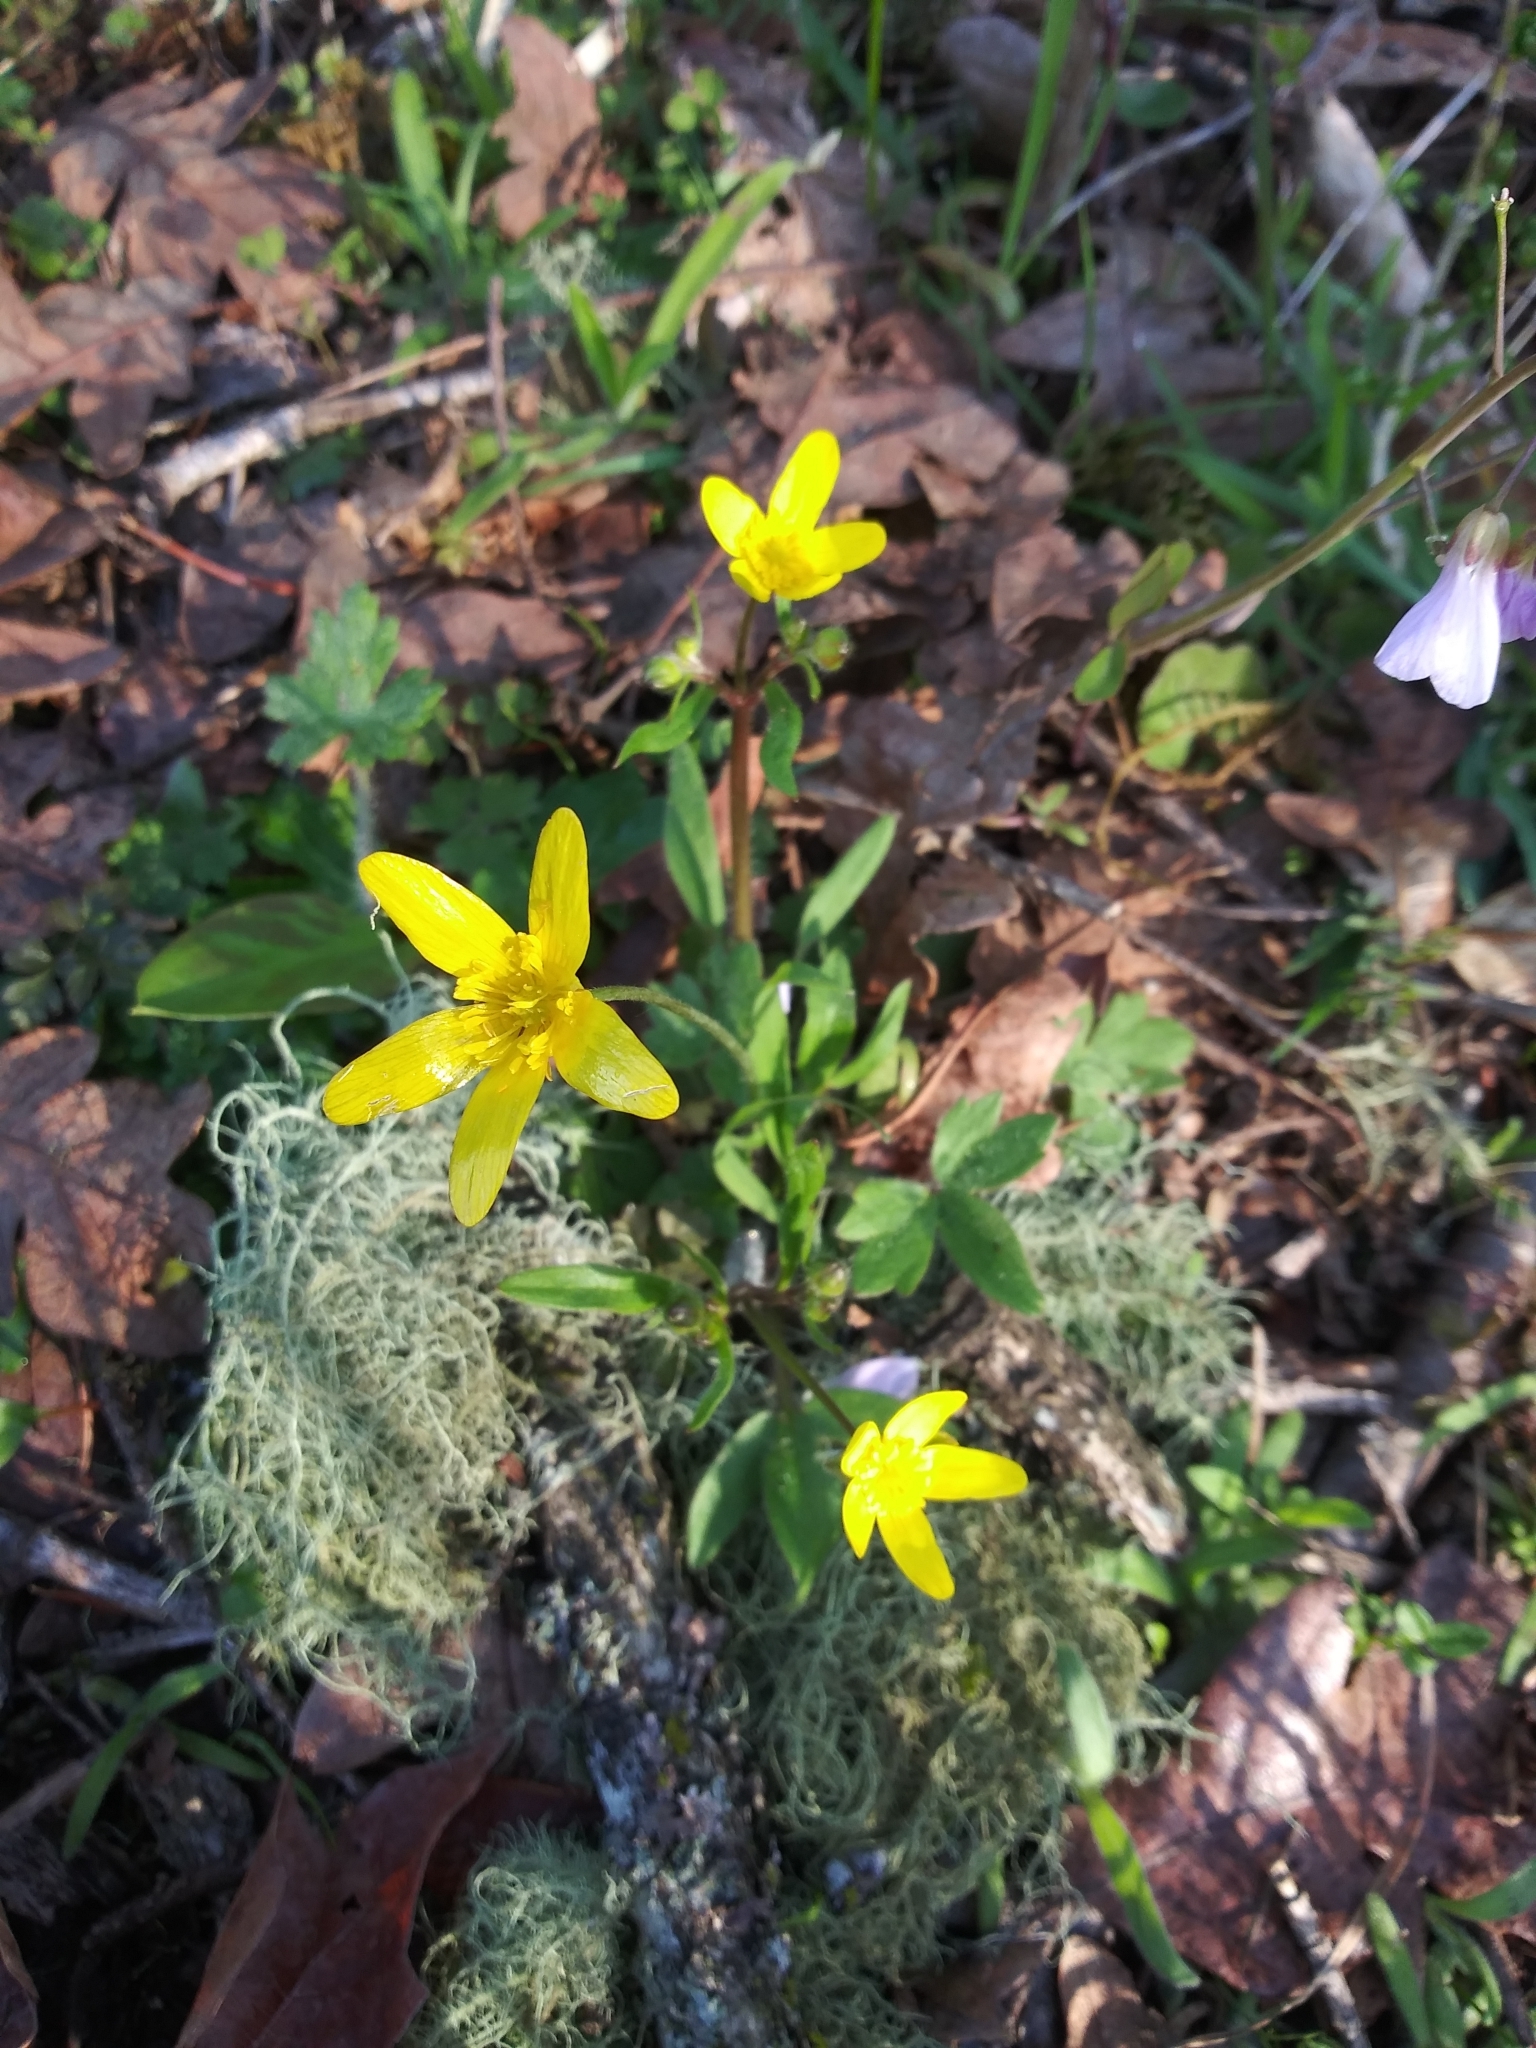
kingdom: Plantae
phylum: Tracheophyta
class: Magnoliopsida
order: Ranunculales
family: Ranunculaceae
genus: Ranunculus
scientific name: Ranunculus occidentalis
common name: Western buttercup
